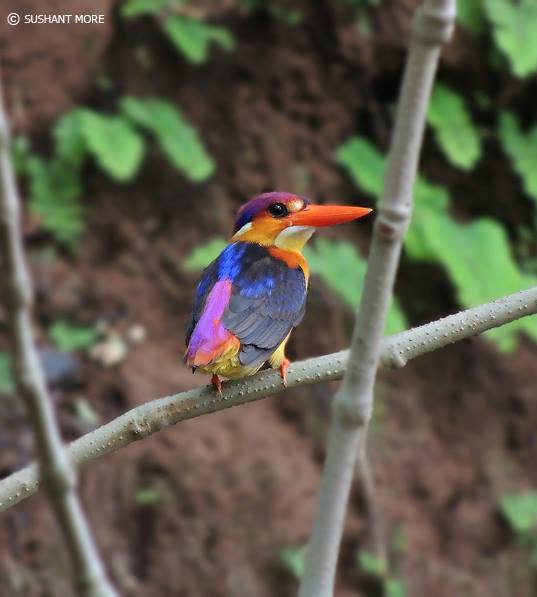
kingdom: Animalia
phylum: Chordata
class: Aves
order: Coraciiformes
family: Alcedinidae
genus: Ceyx
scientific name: Ceyx erithaca
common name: Oriental dwarf kingfisher
